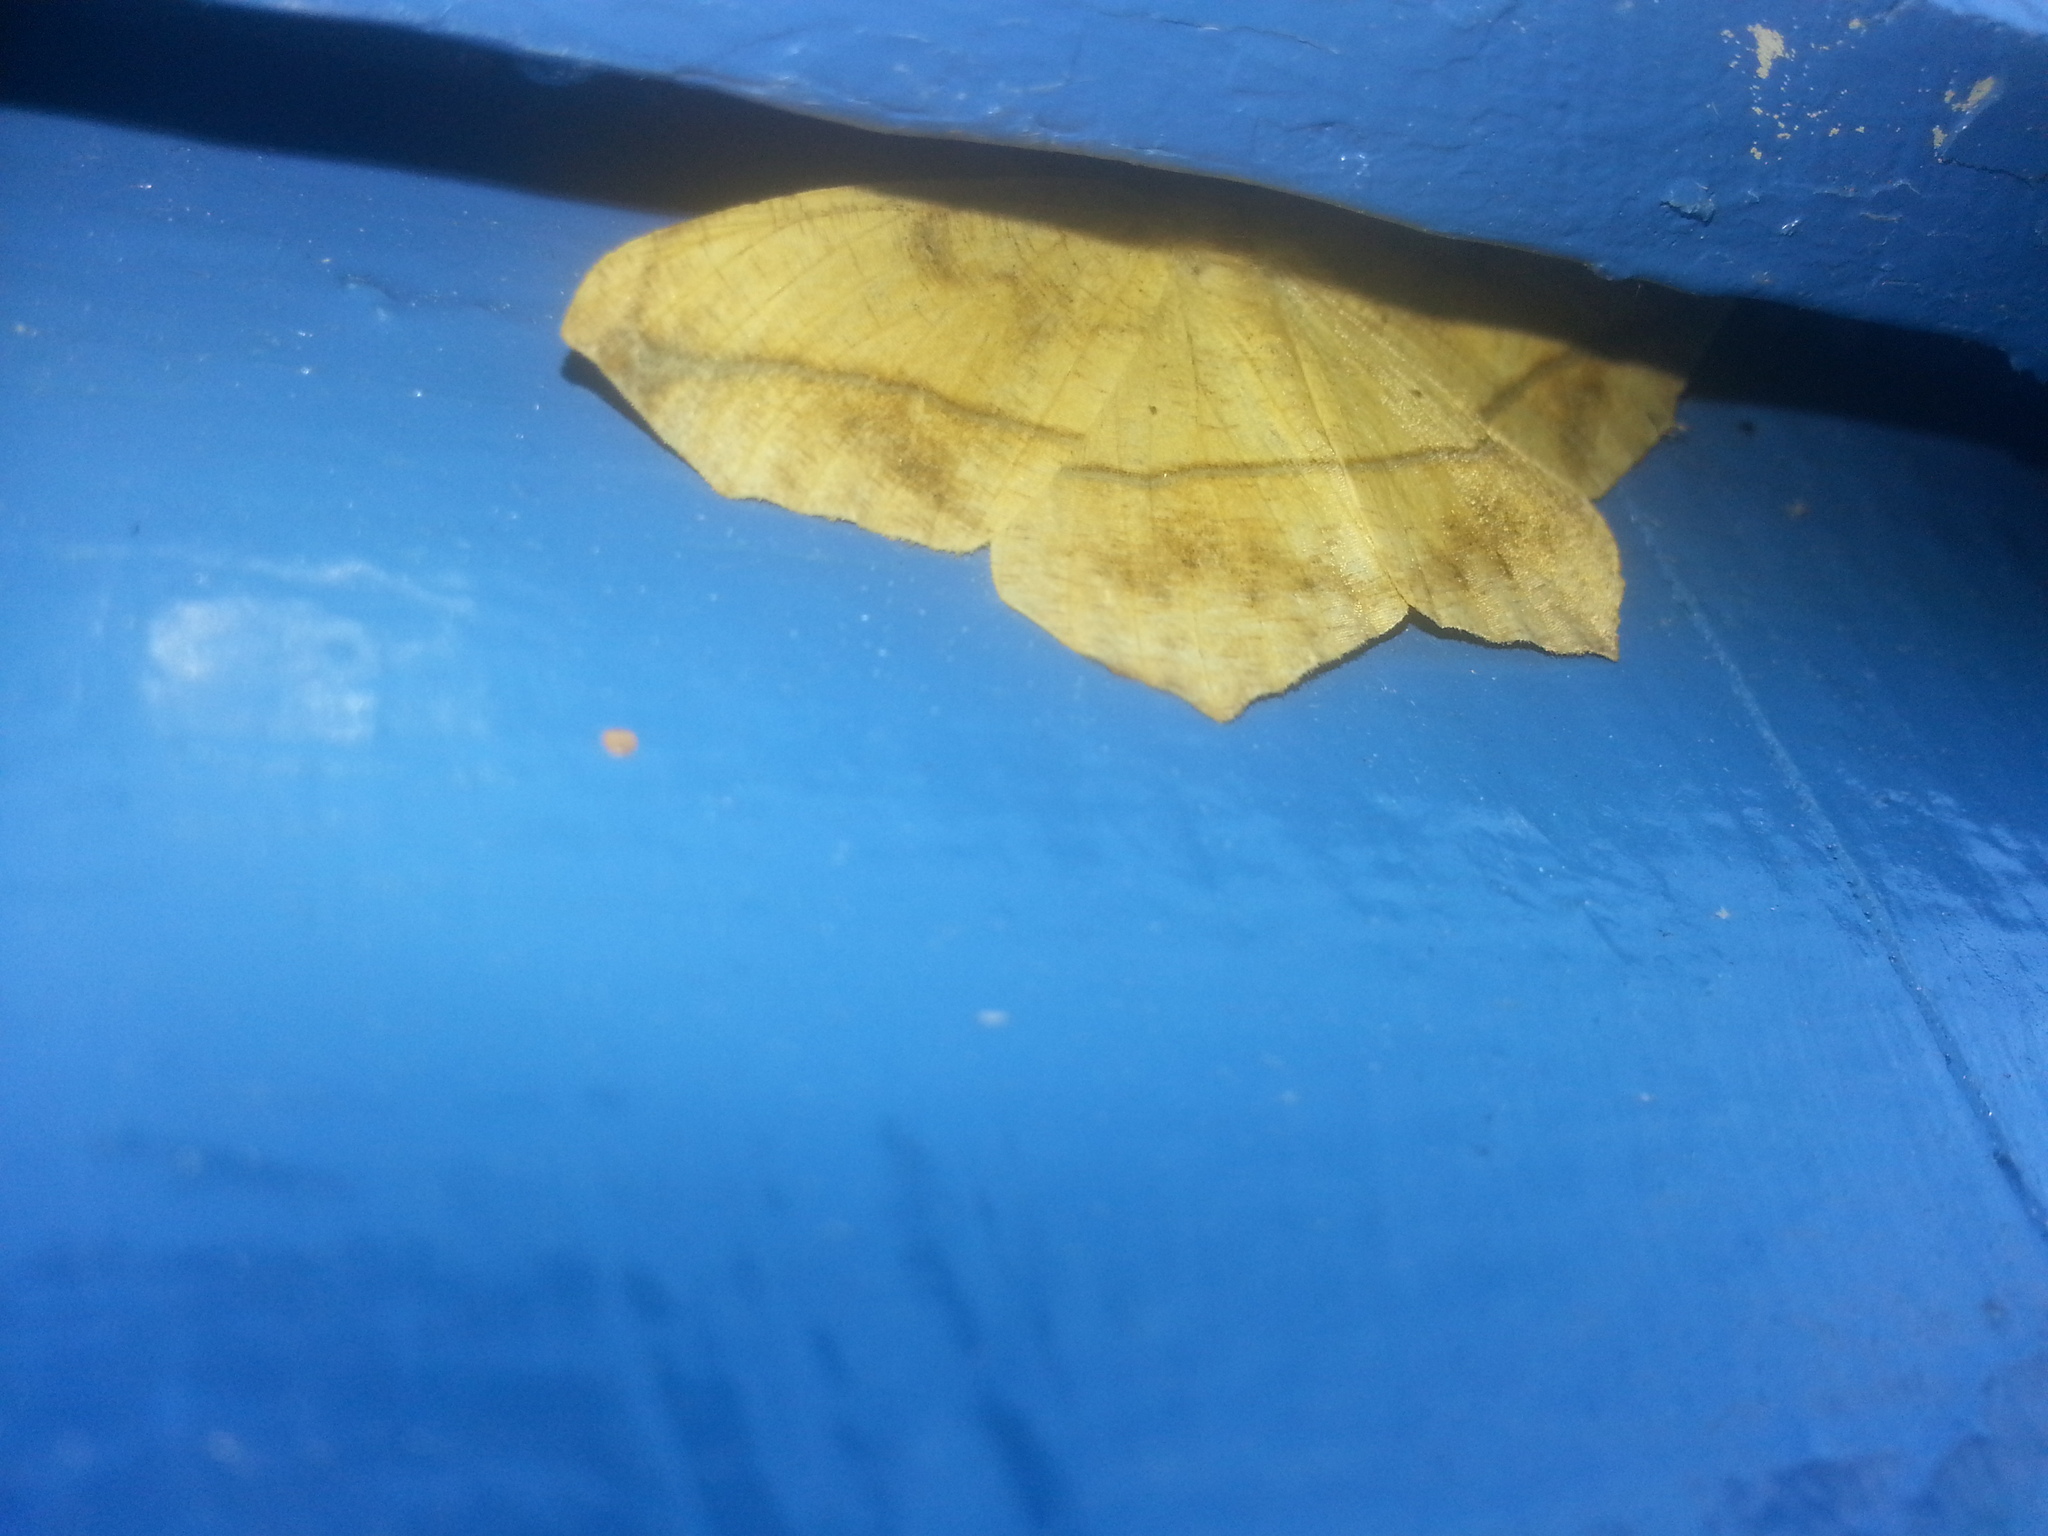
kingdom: Animalia
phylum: Arthropoda
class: Insecta
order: Lepidoptera
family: Geometridae
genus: Prochoerodes
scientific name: Prochoerodes lineola
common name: Large maple spanworm
